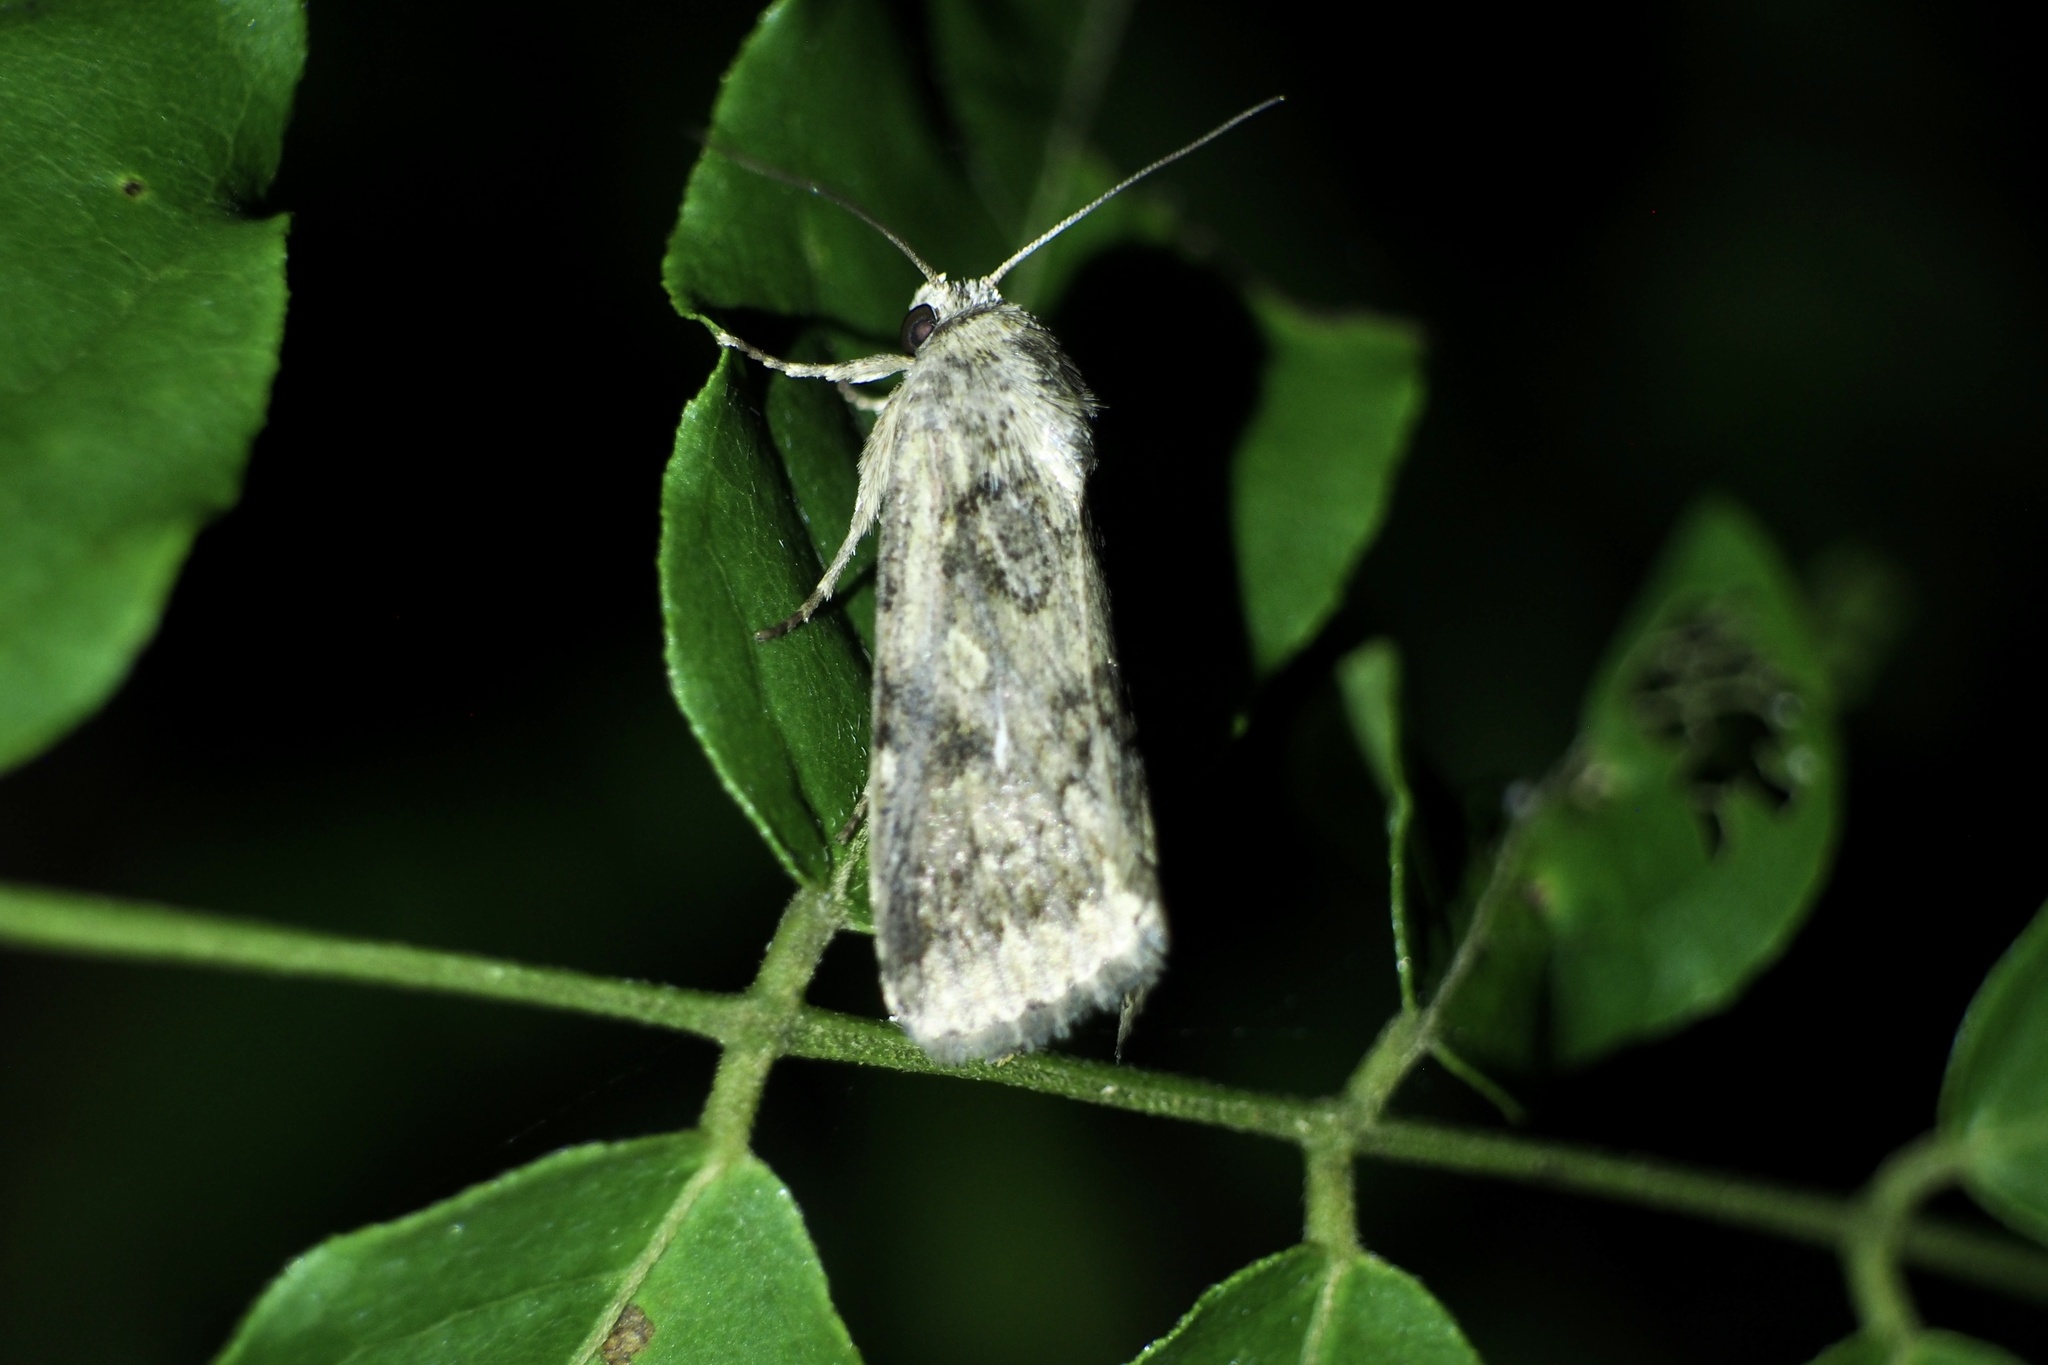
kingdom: Animalia
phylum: Arthropoda
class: Insecta
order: Lepidoptera
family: Noctuidae
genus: Spodoptera
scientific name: Spodoptera depravata
